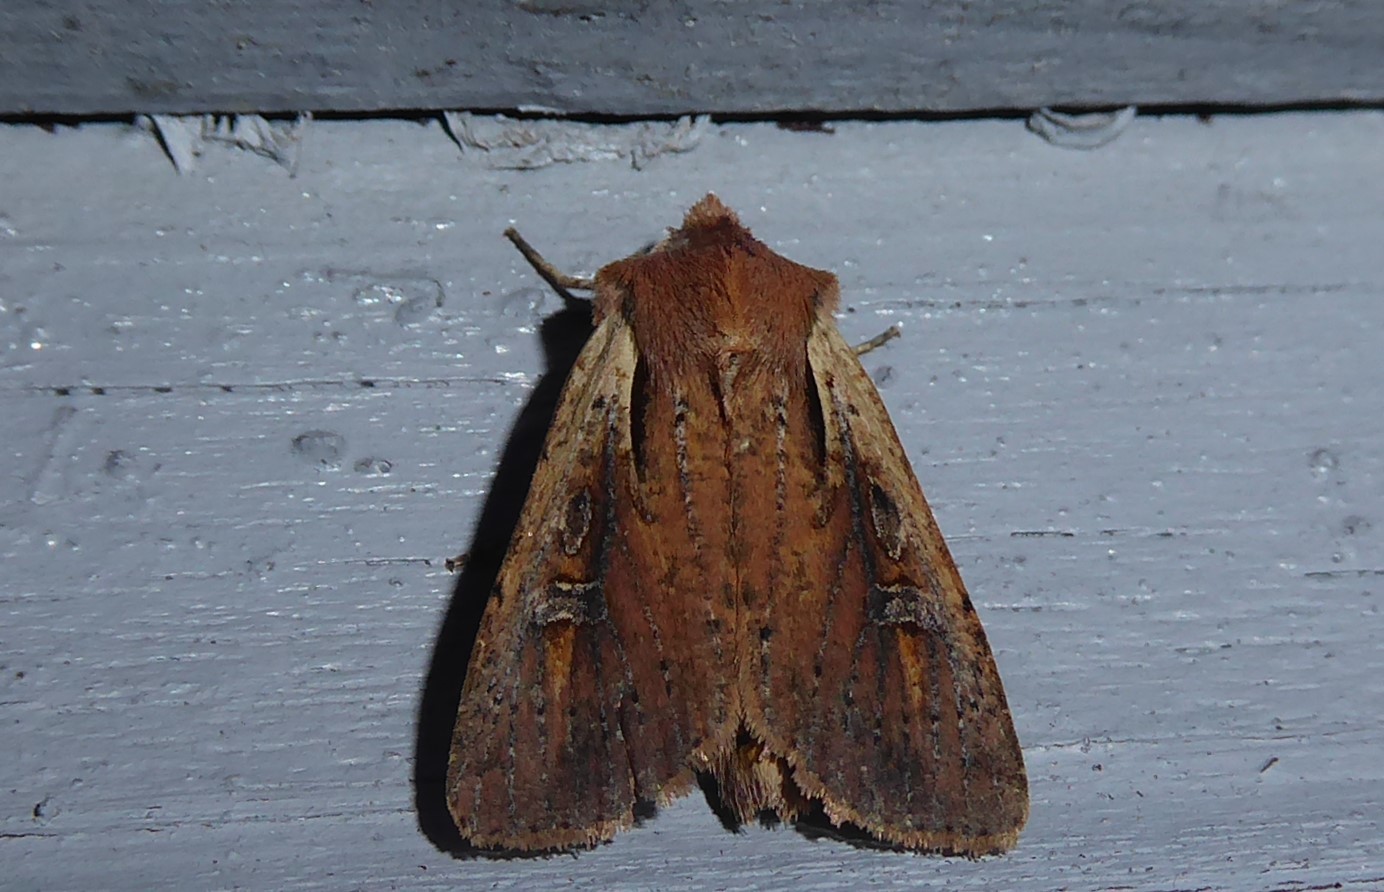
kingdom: Animalia
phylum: Arthropoda
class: Insecta
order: Lepidoptera
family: Noctuidae
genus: Ichneutica
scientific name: Ichneutica atristriga
